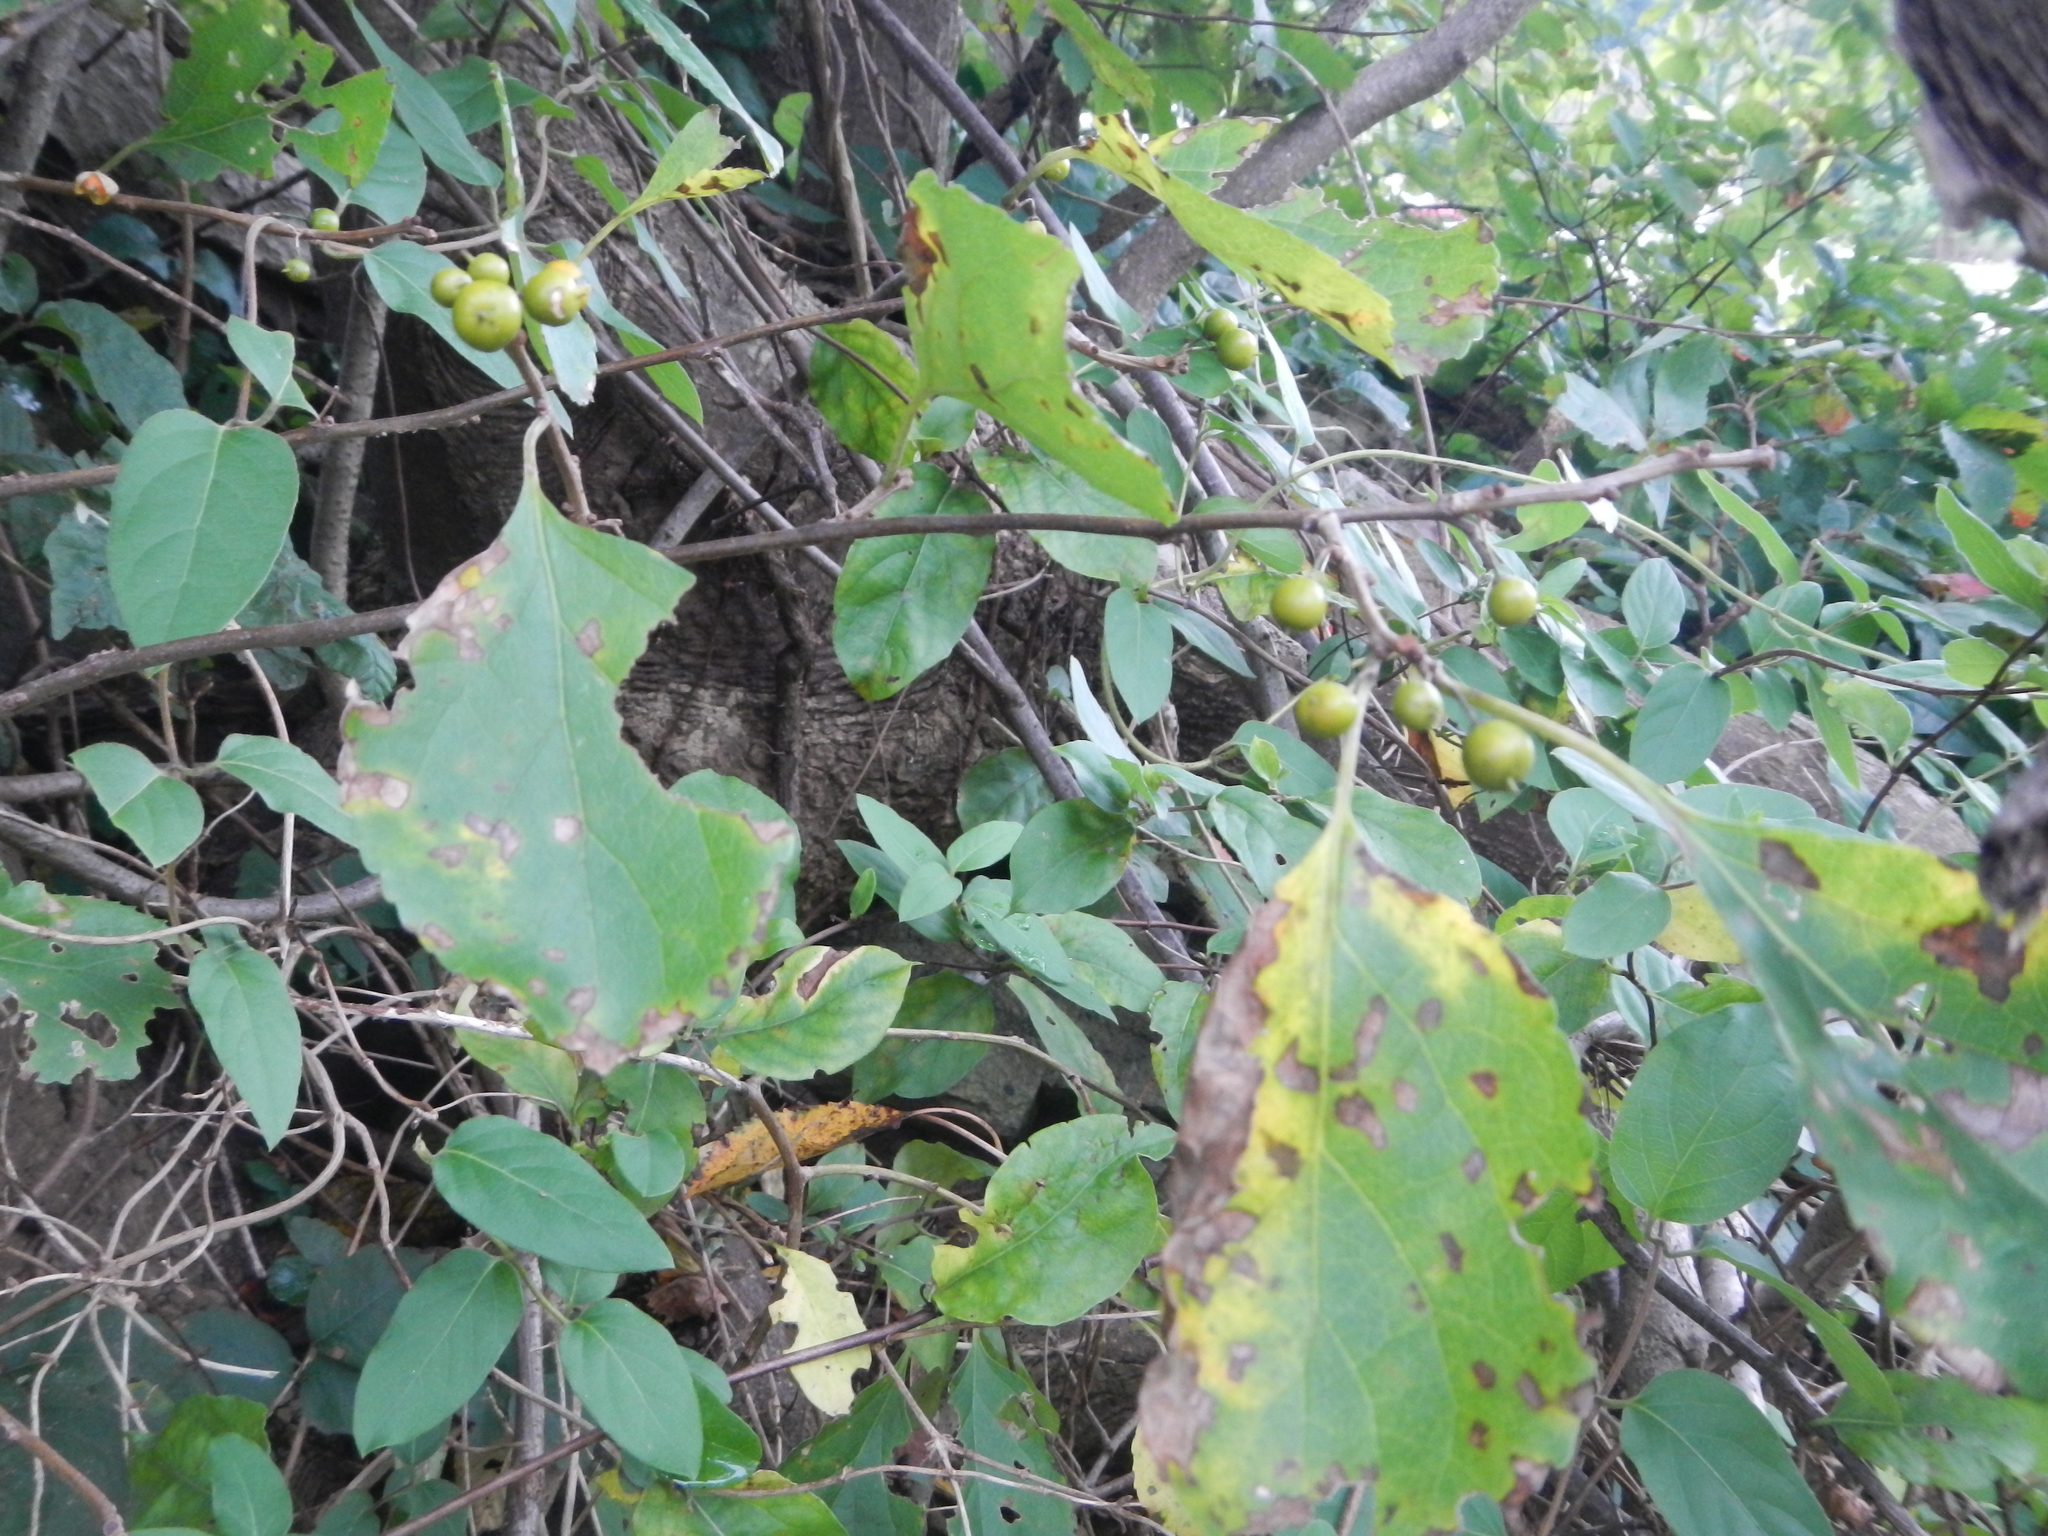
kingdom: Plantae
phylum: Tracheophyta
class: Magnoliopsida
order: Celastrales
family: Celastraceae
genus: Celastrus
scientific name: Celastrus orbiculatus
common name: Oriental bittersweet
